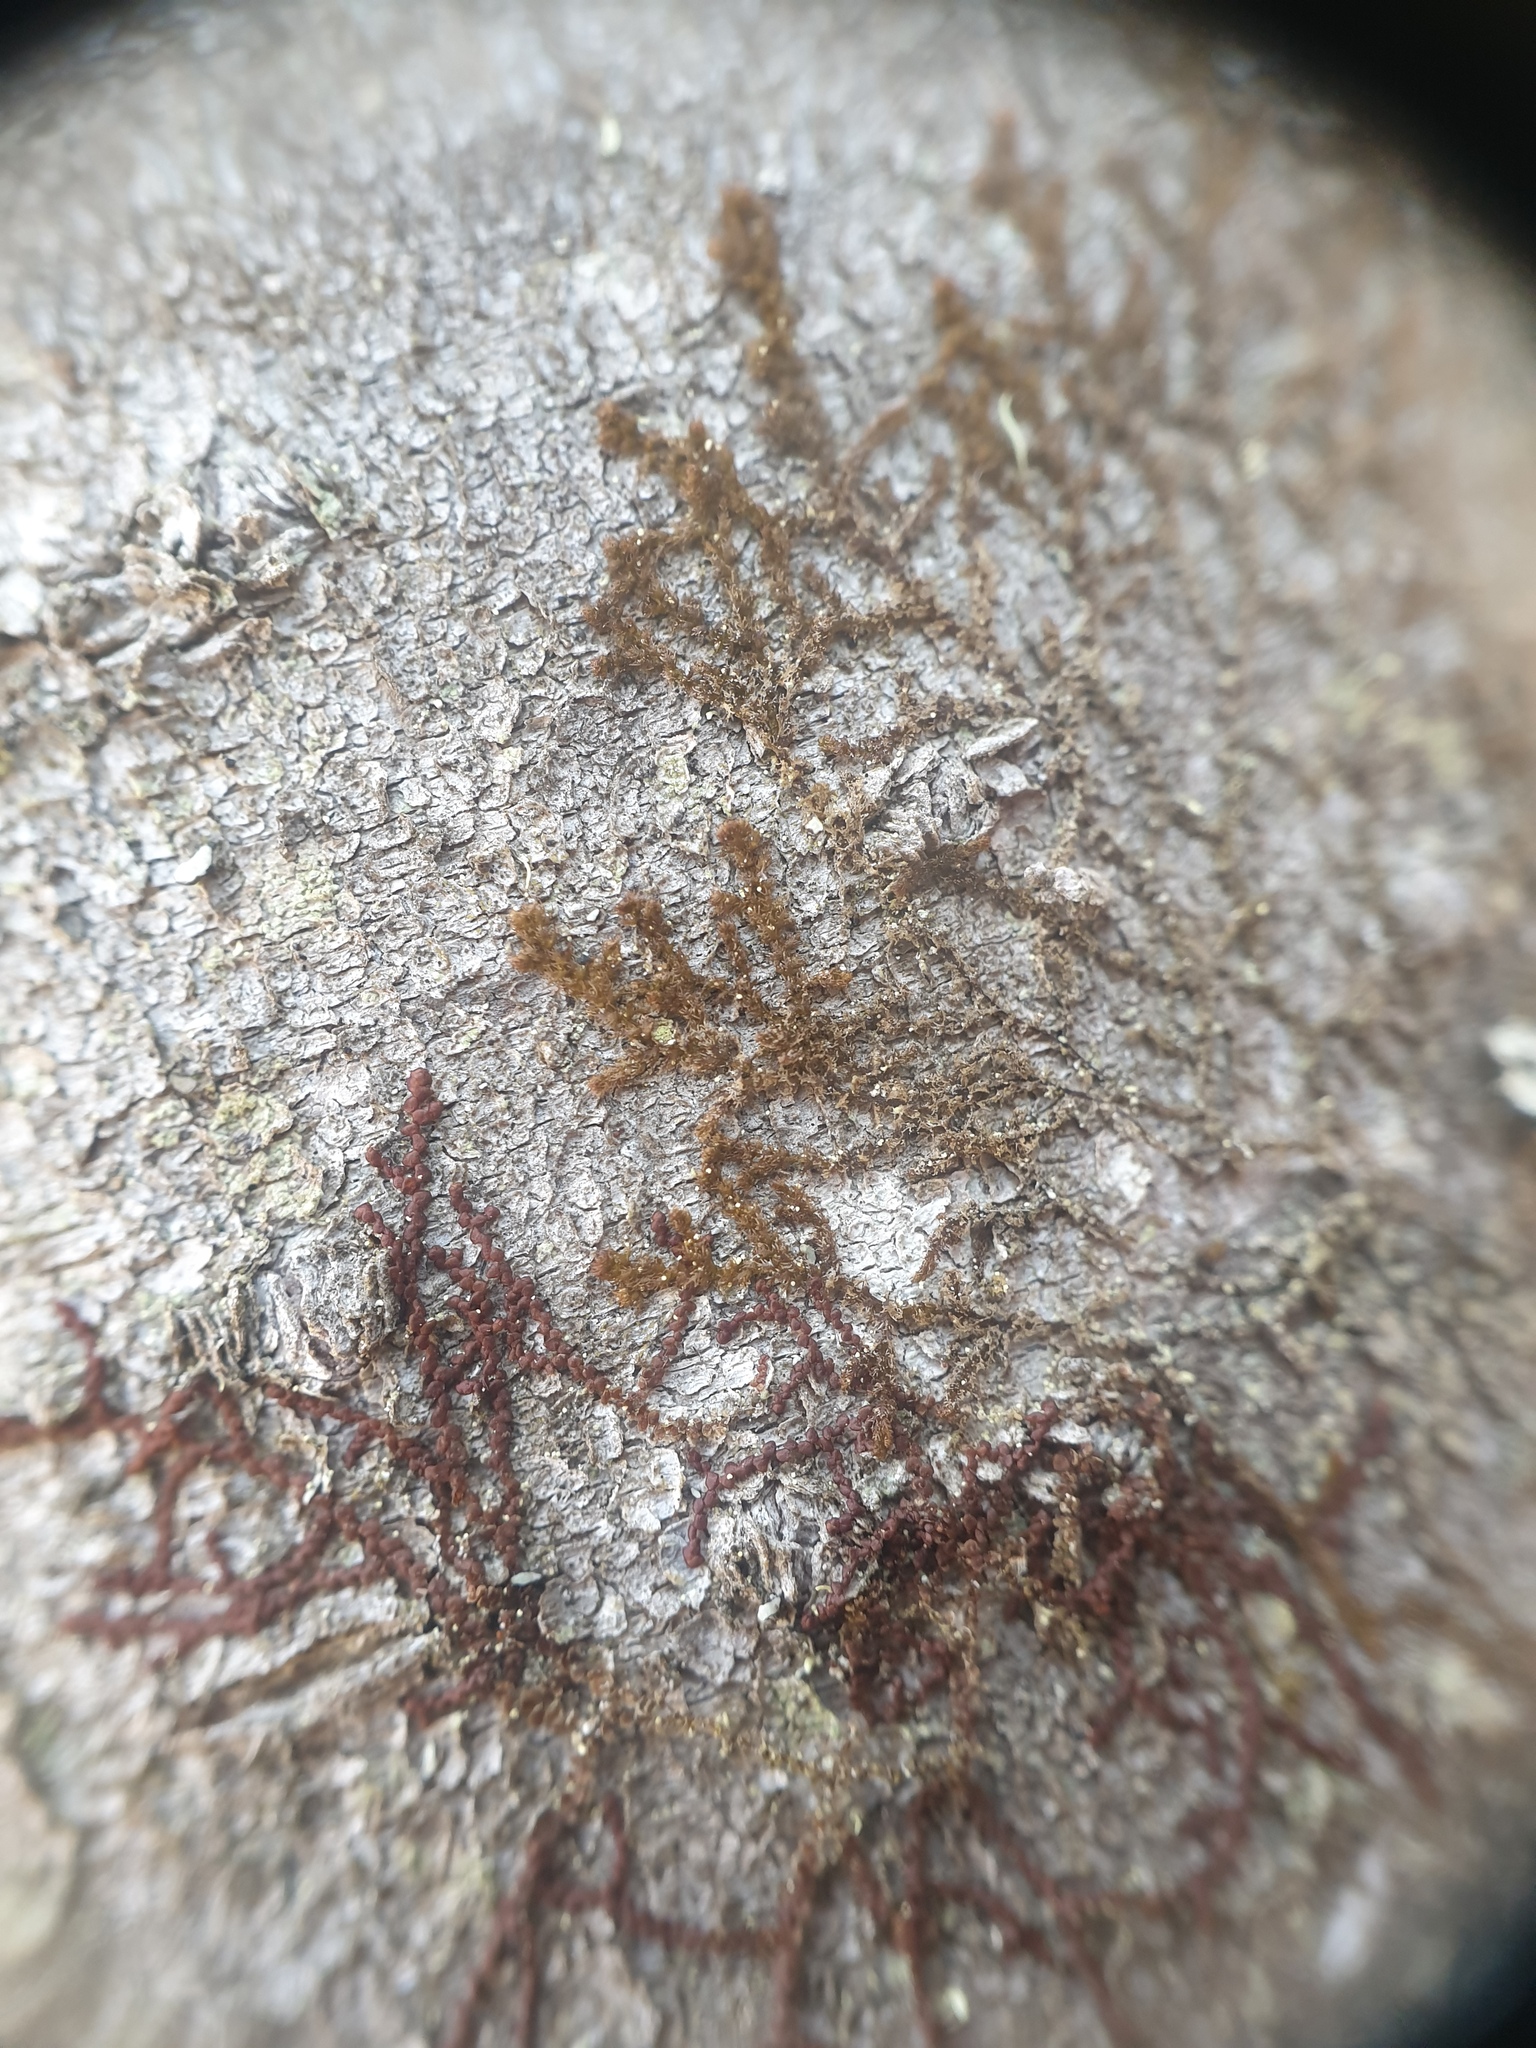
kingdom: Plantae
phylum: Marchantiophyta
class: Jungermanniopsida
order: Ptilidiales
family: Ptilidiaceae
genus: Ptilidium
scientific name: Ptilidium pulcherrimum
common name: Tree fringewort
